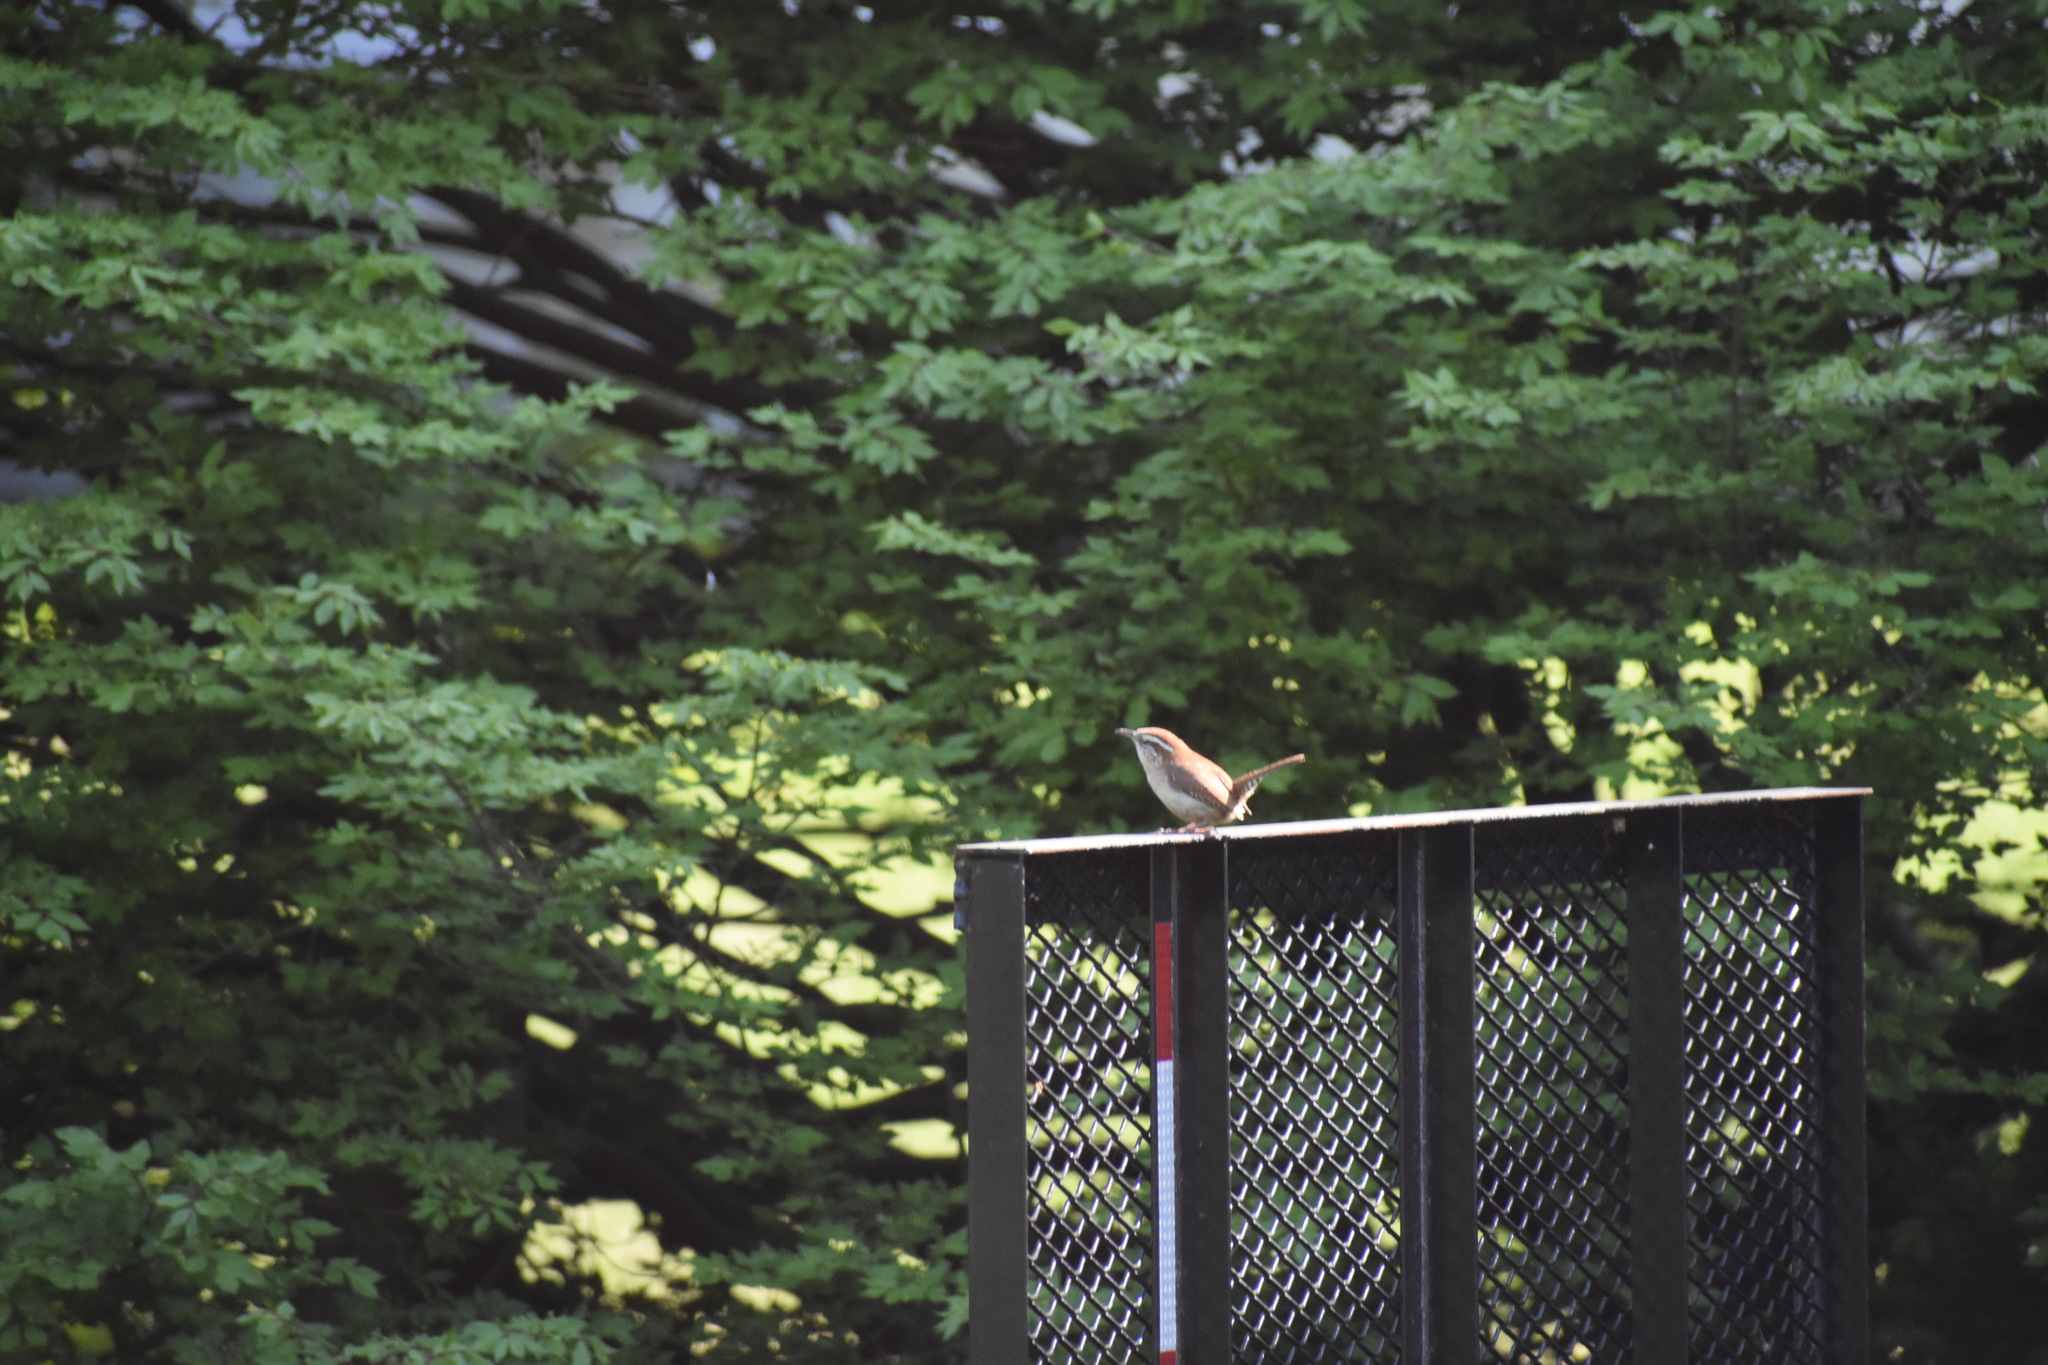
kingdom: Animalia
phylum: Chordata
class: Aves
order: Passeriformes
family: Troglodytidae
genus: Thryothorus
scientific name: Thryothorus ludovicianus
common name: Carolina wren
